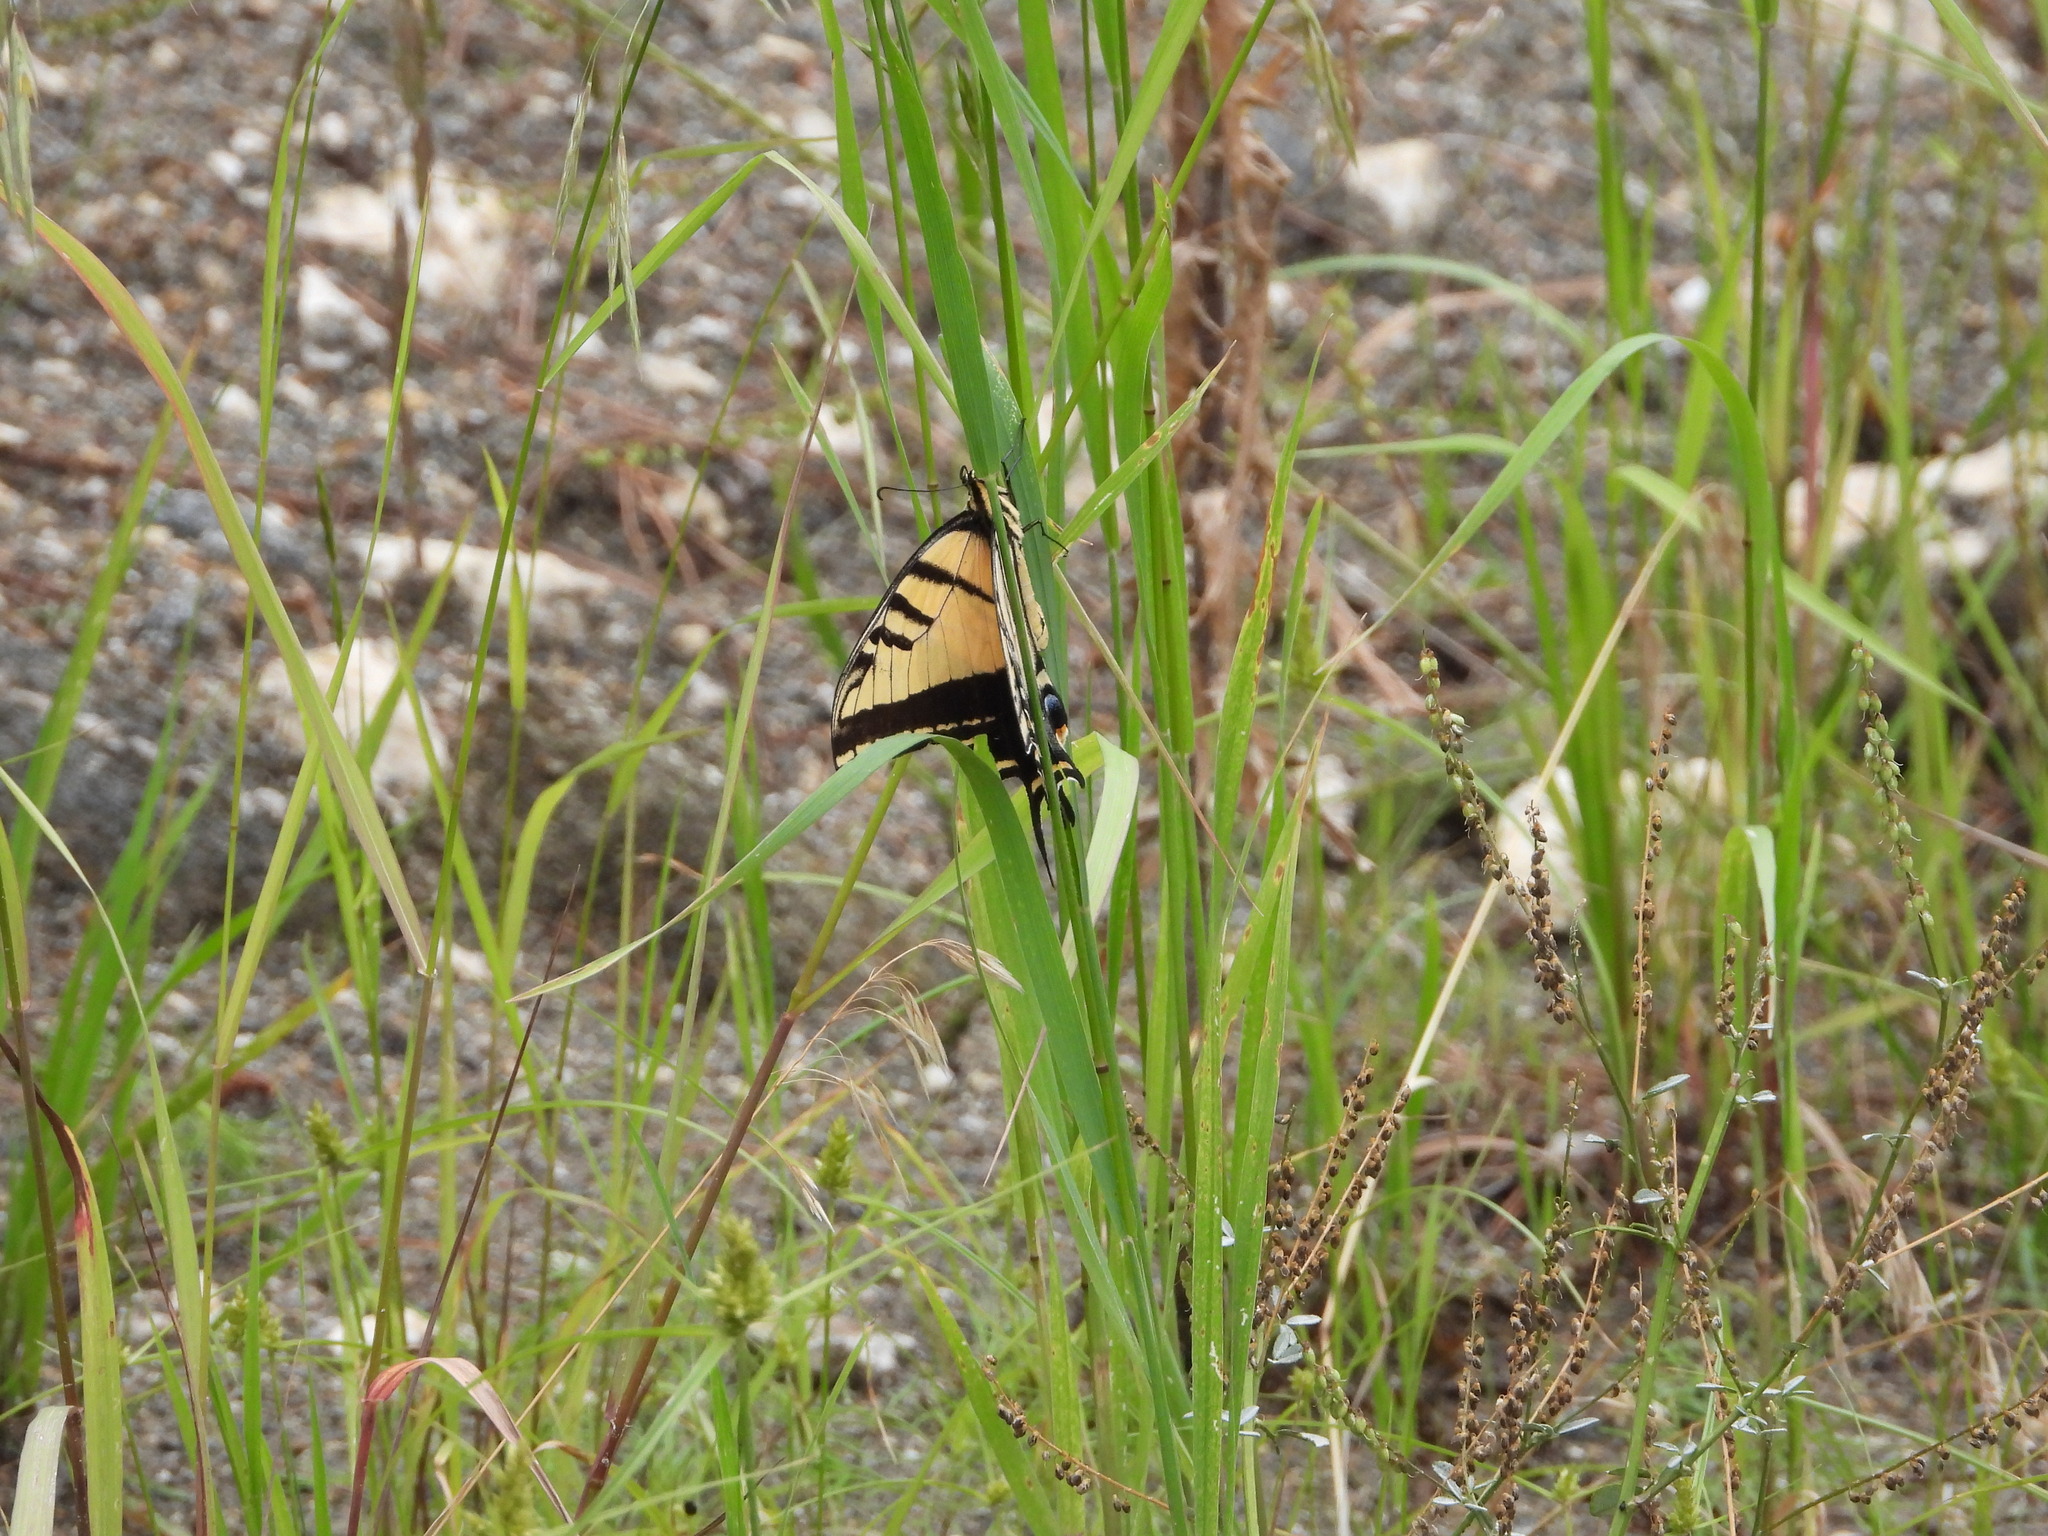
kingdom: Animalia
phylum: Arthropoda
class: Insecta
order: Lepidoptera
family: Papilionidae
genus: Papilio
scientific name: Papilio multicaudata
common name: Two-tailed tiger swallowtail
